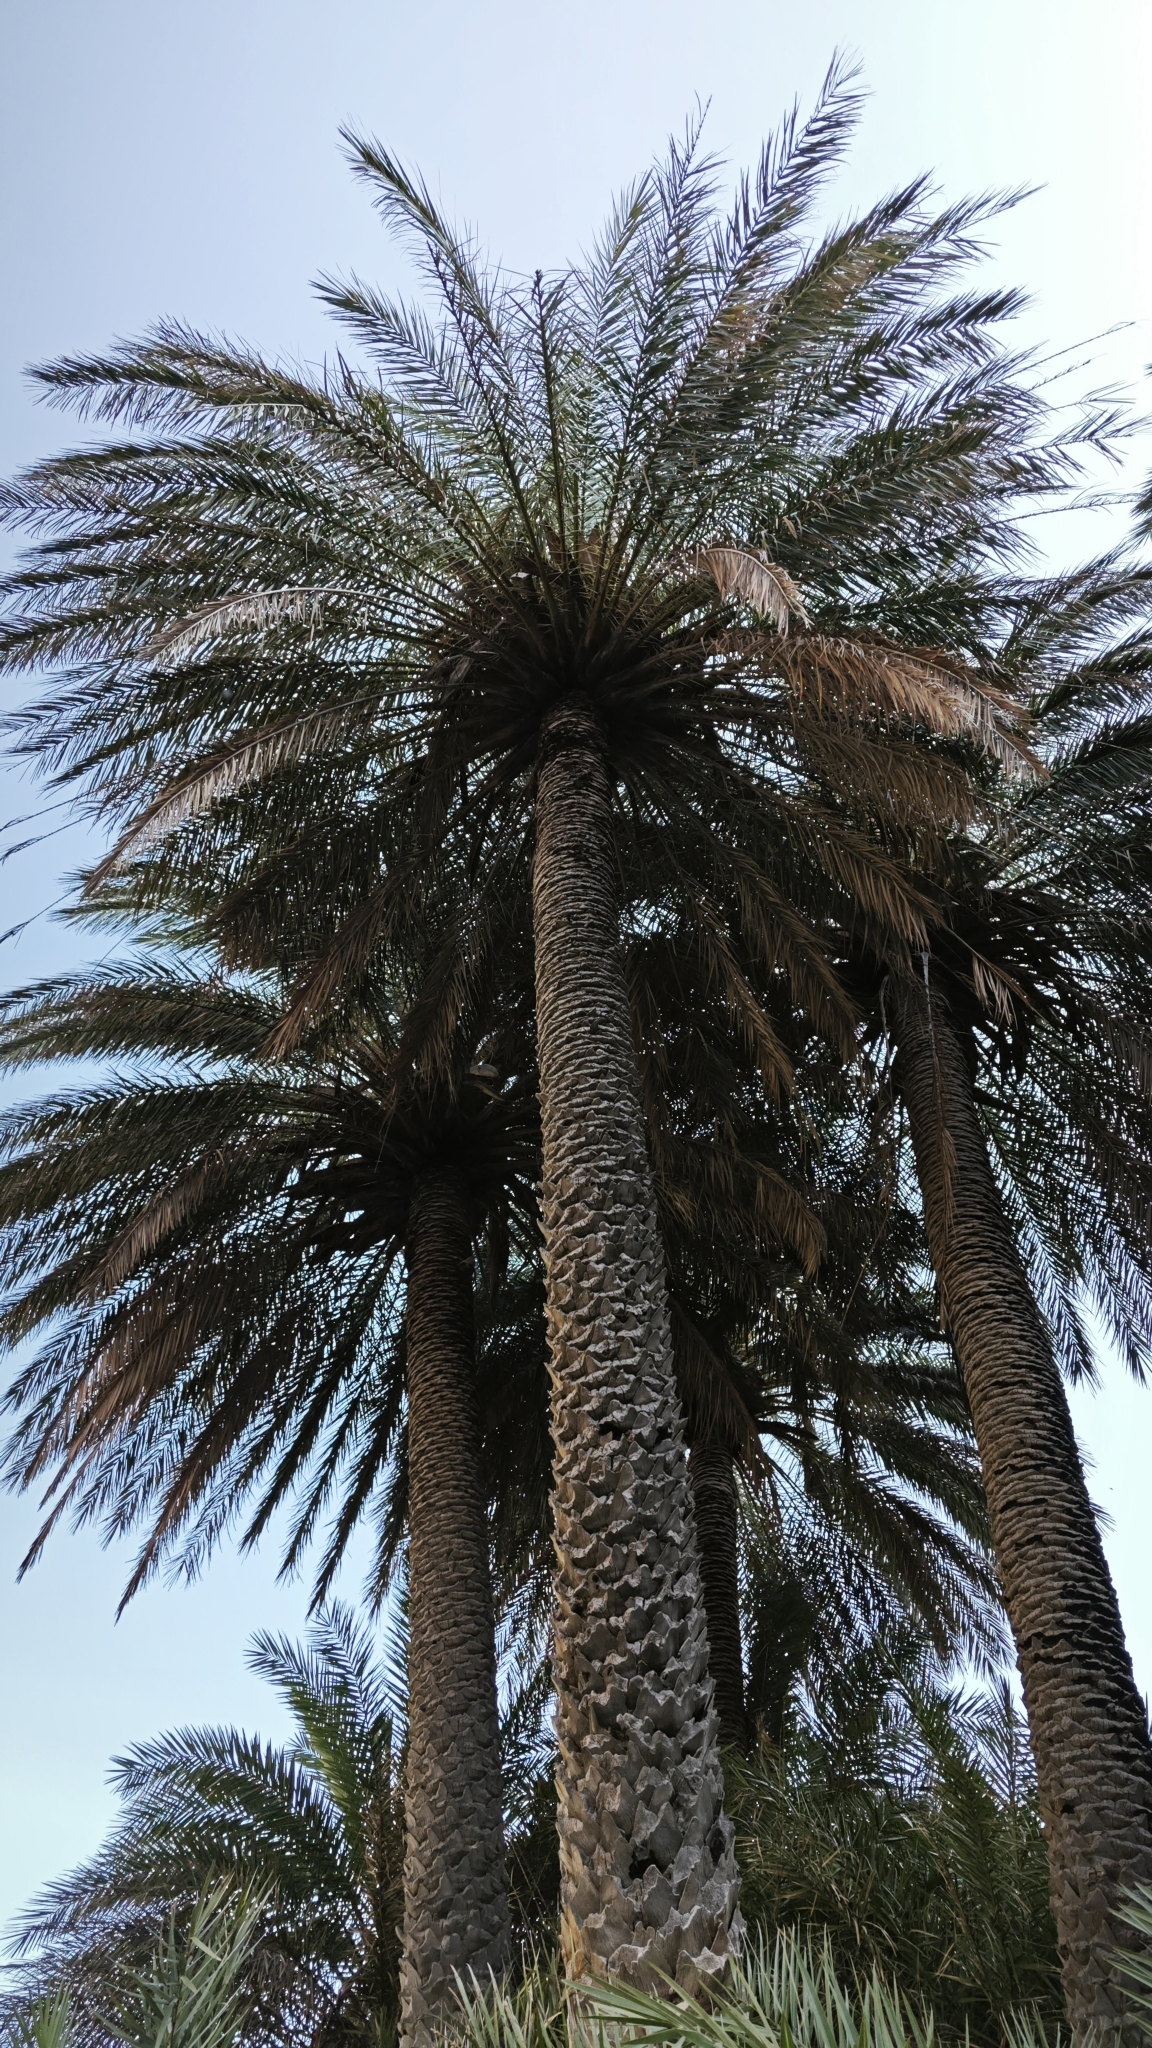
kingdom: Plantae
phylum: Tracheophyta
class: Liliopsida
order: Arecales
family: Arecaceae
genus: Phoenix
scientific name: Phoenix theophrasti
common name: Cretan date palm
